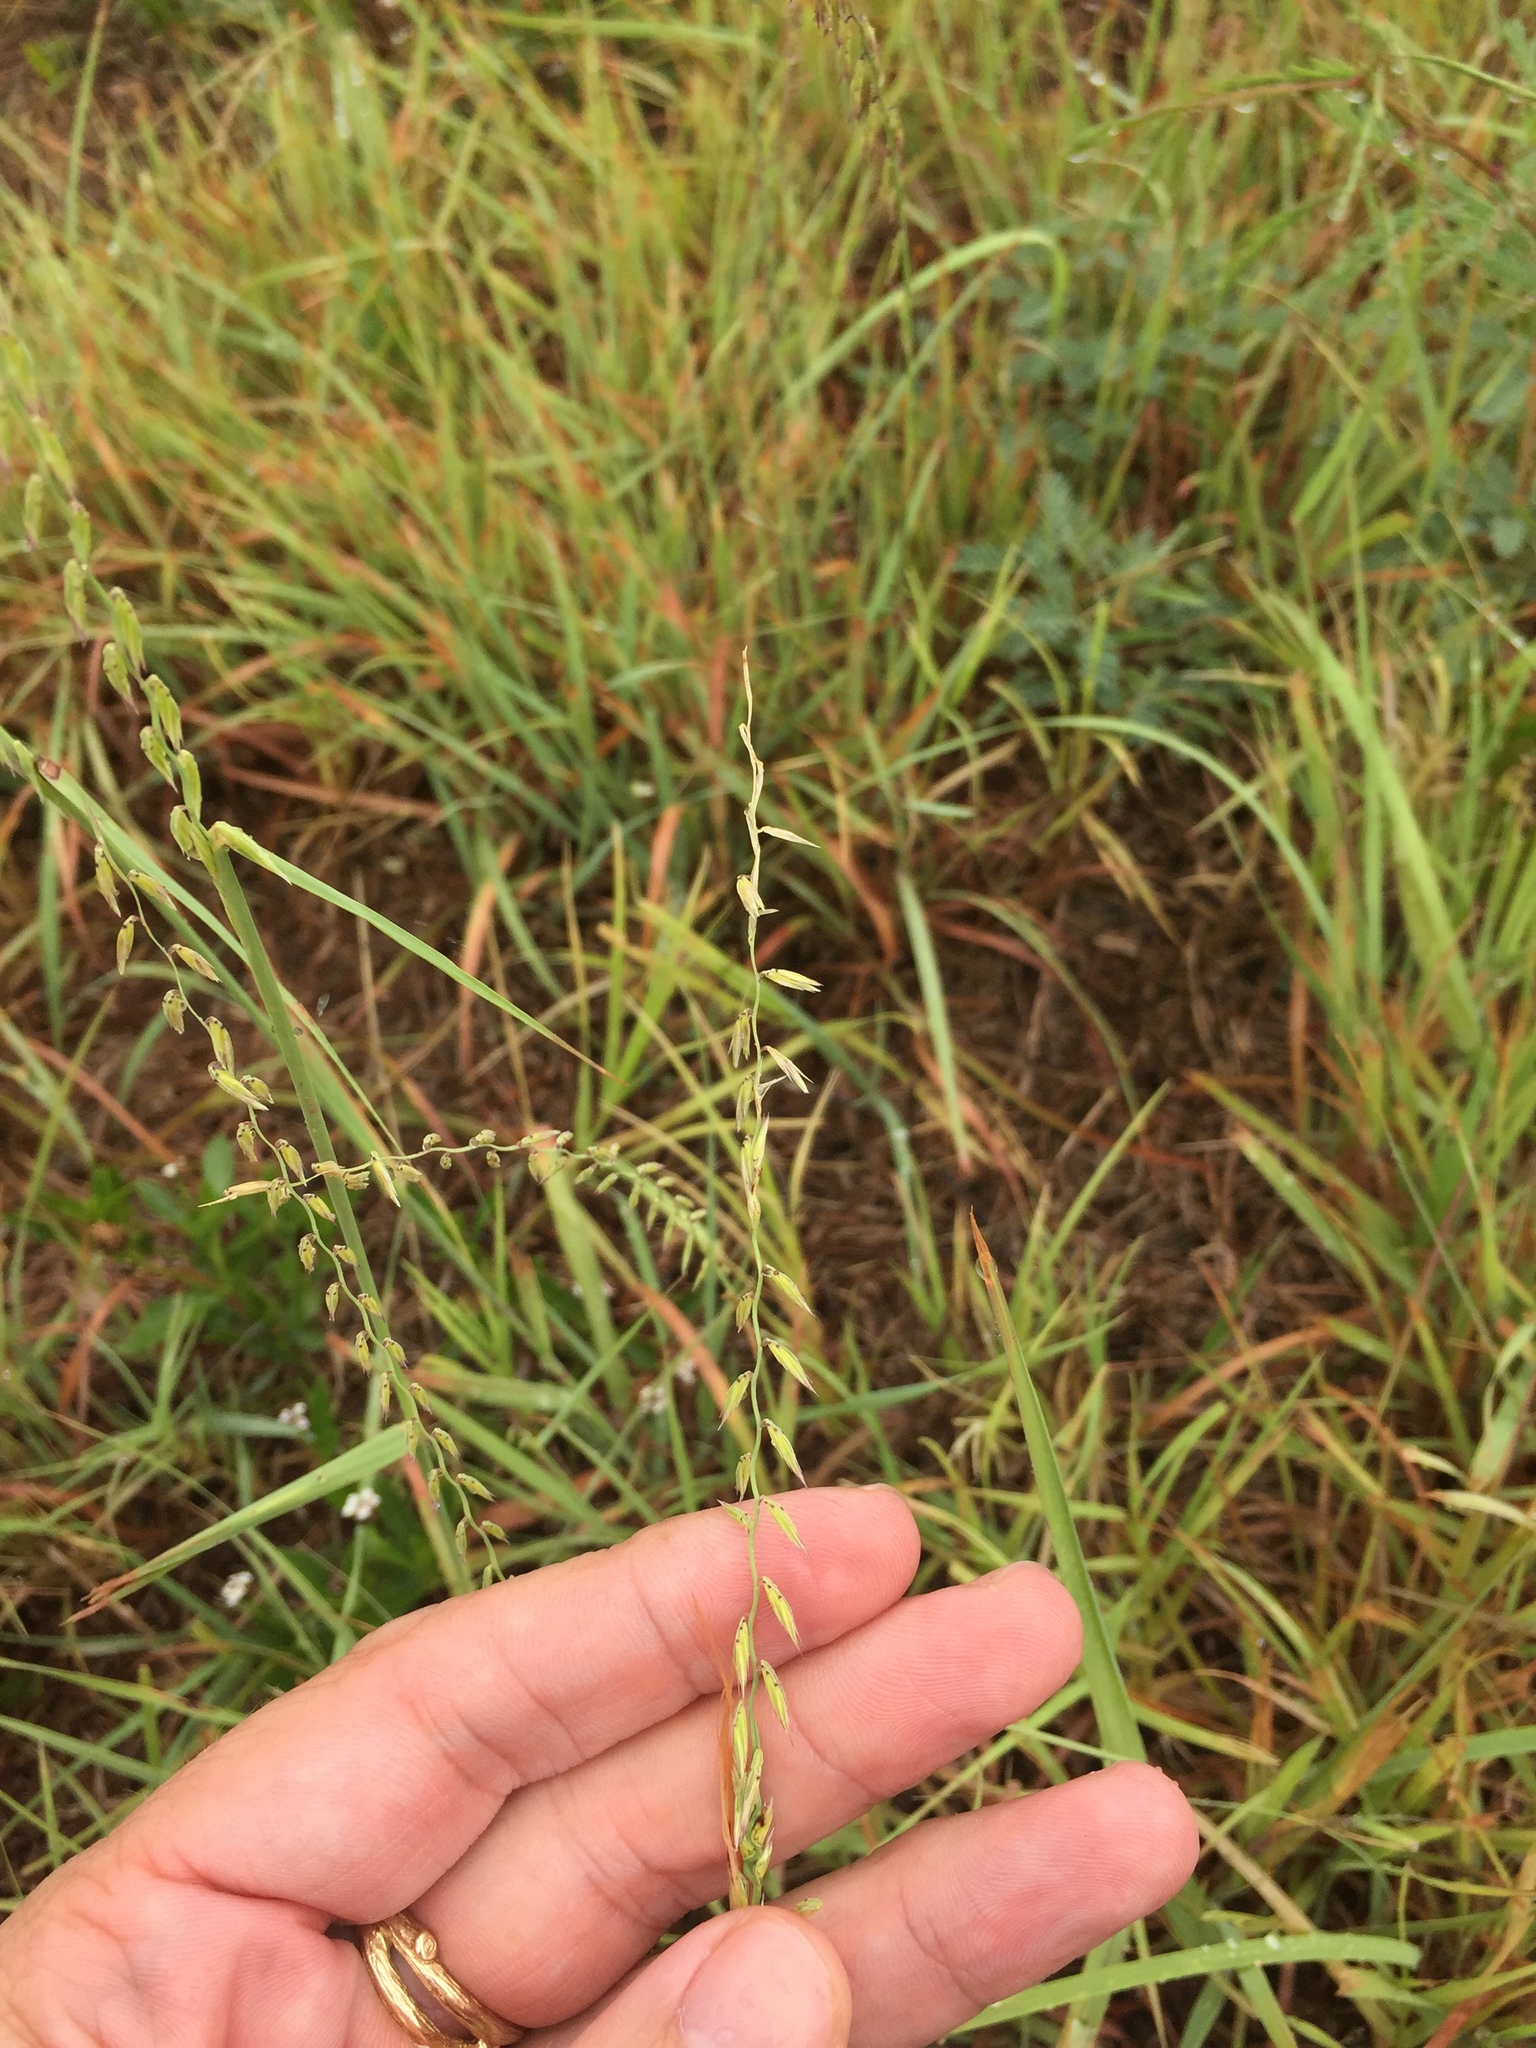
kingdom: Plantae
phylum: Tracheophyta
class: Liliopsida
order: Poales
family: Poaceae
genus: Bouteloua
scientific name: Bouteloua curtipendula
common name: Side-oats grama
